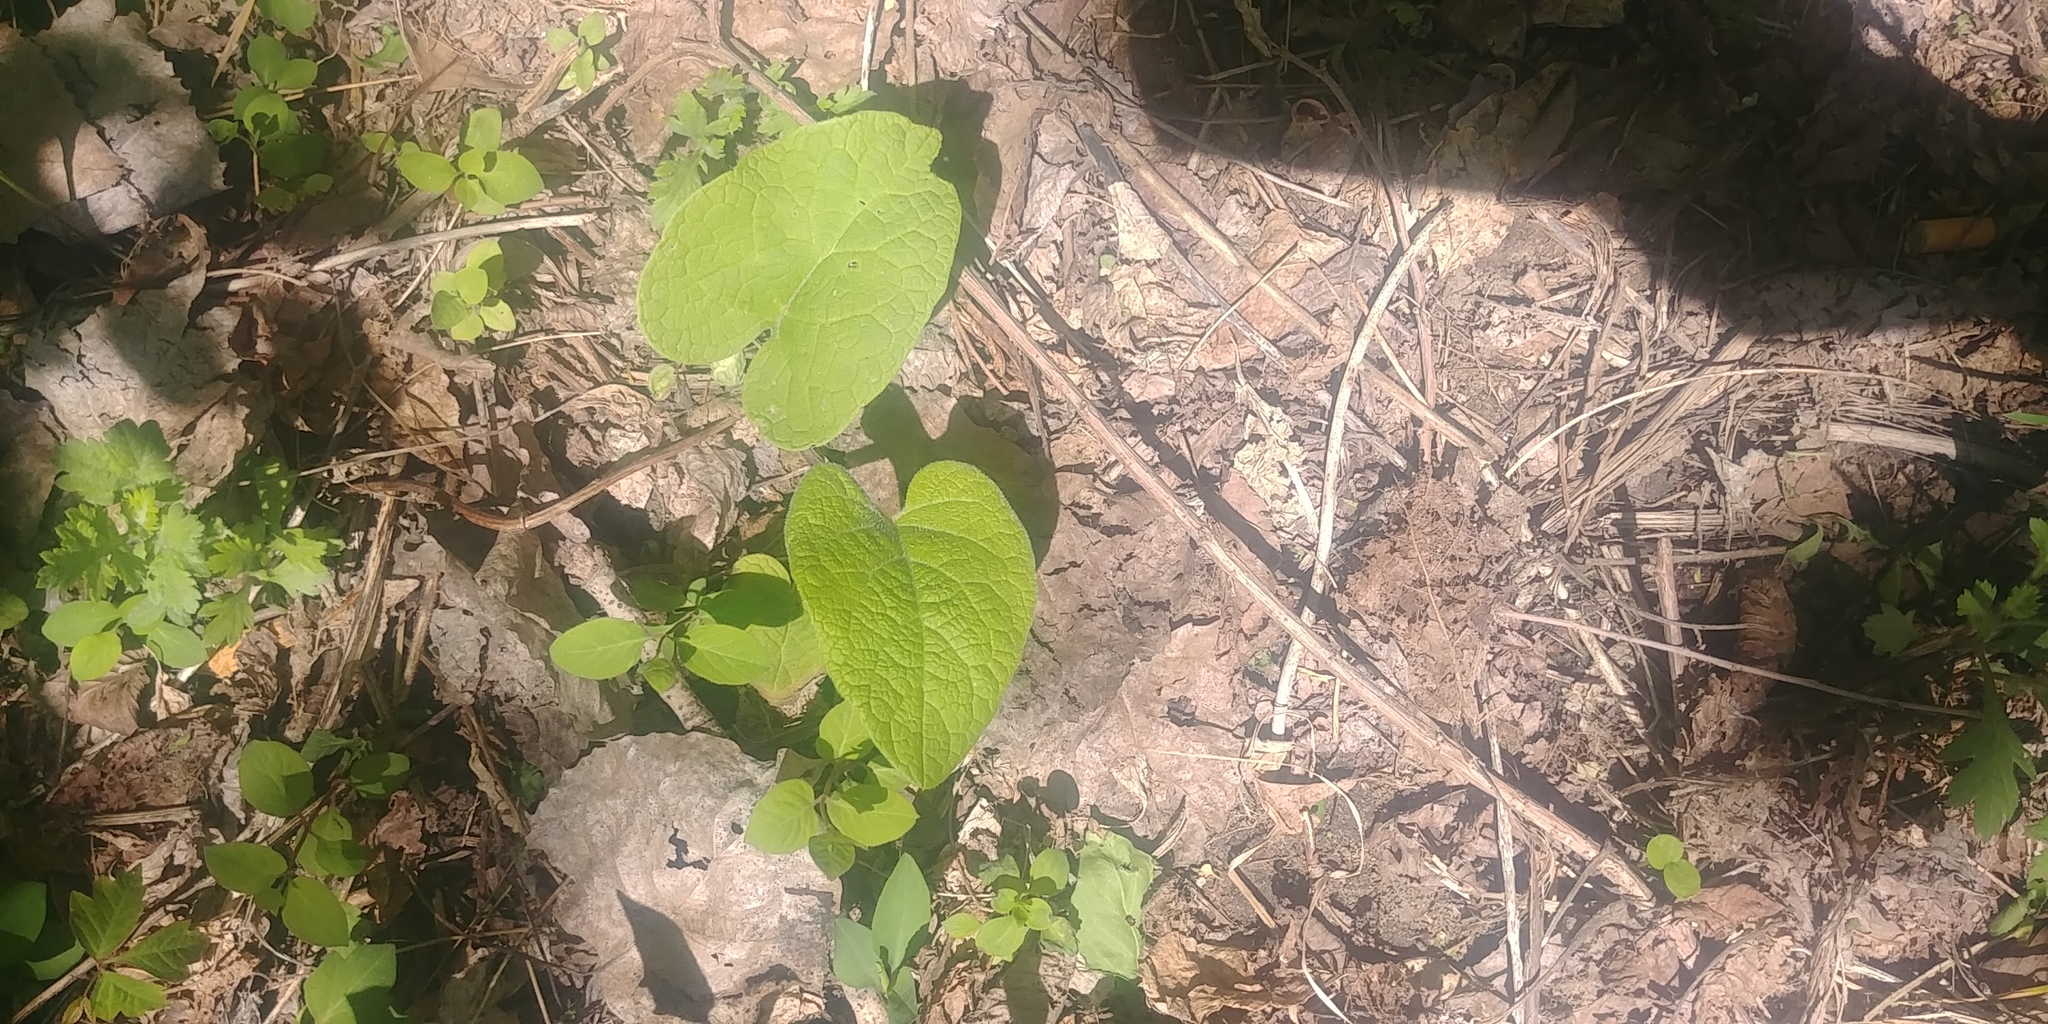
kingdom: Plantae
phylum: Tracheophyta
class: Magnoliopsida
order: Asterales
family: Asteraceae
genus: Arctium
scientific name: Arctium
